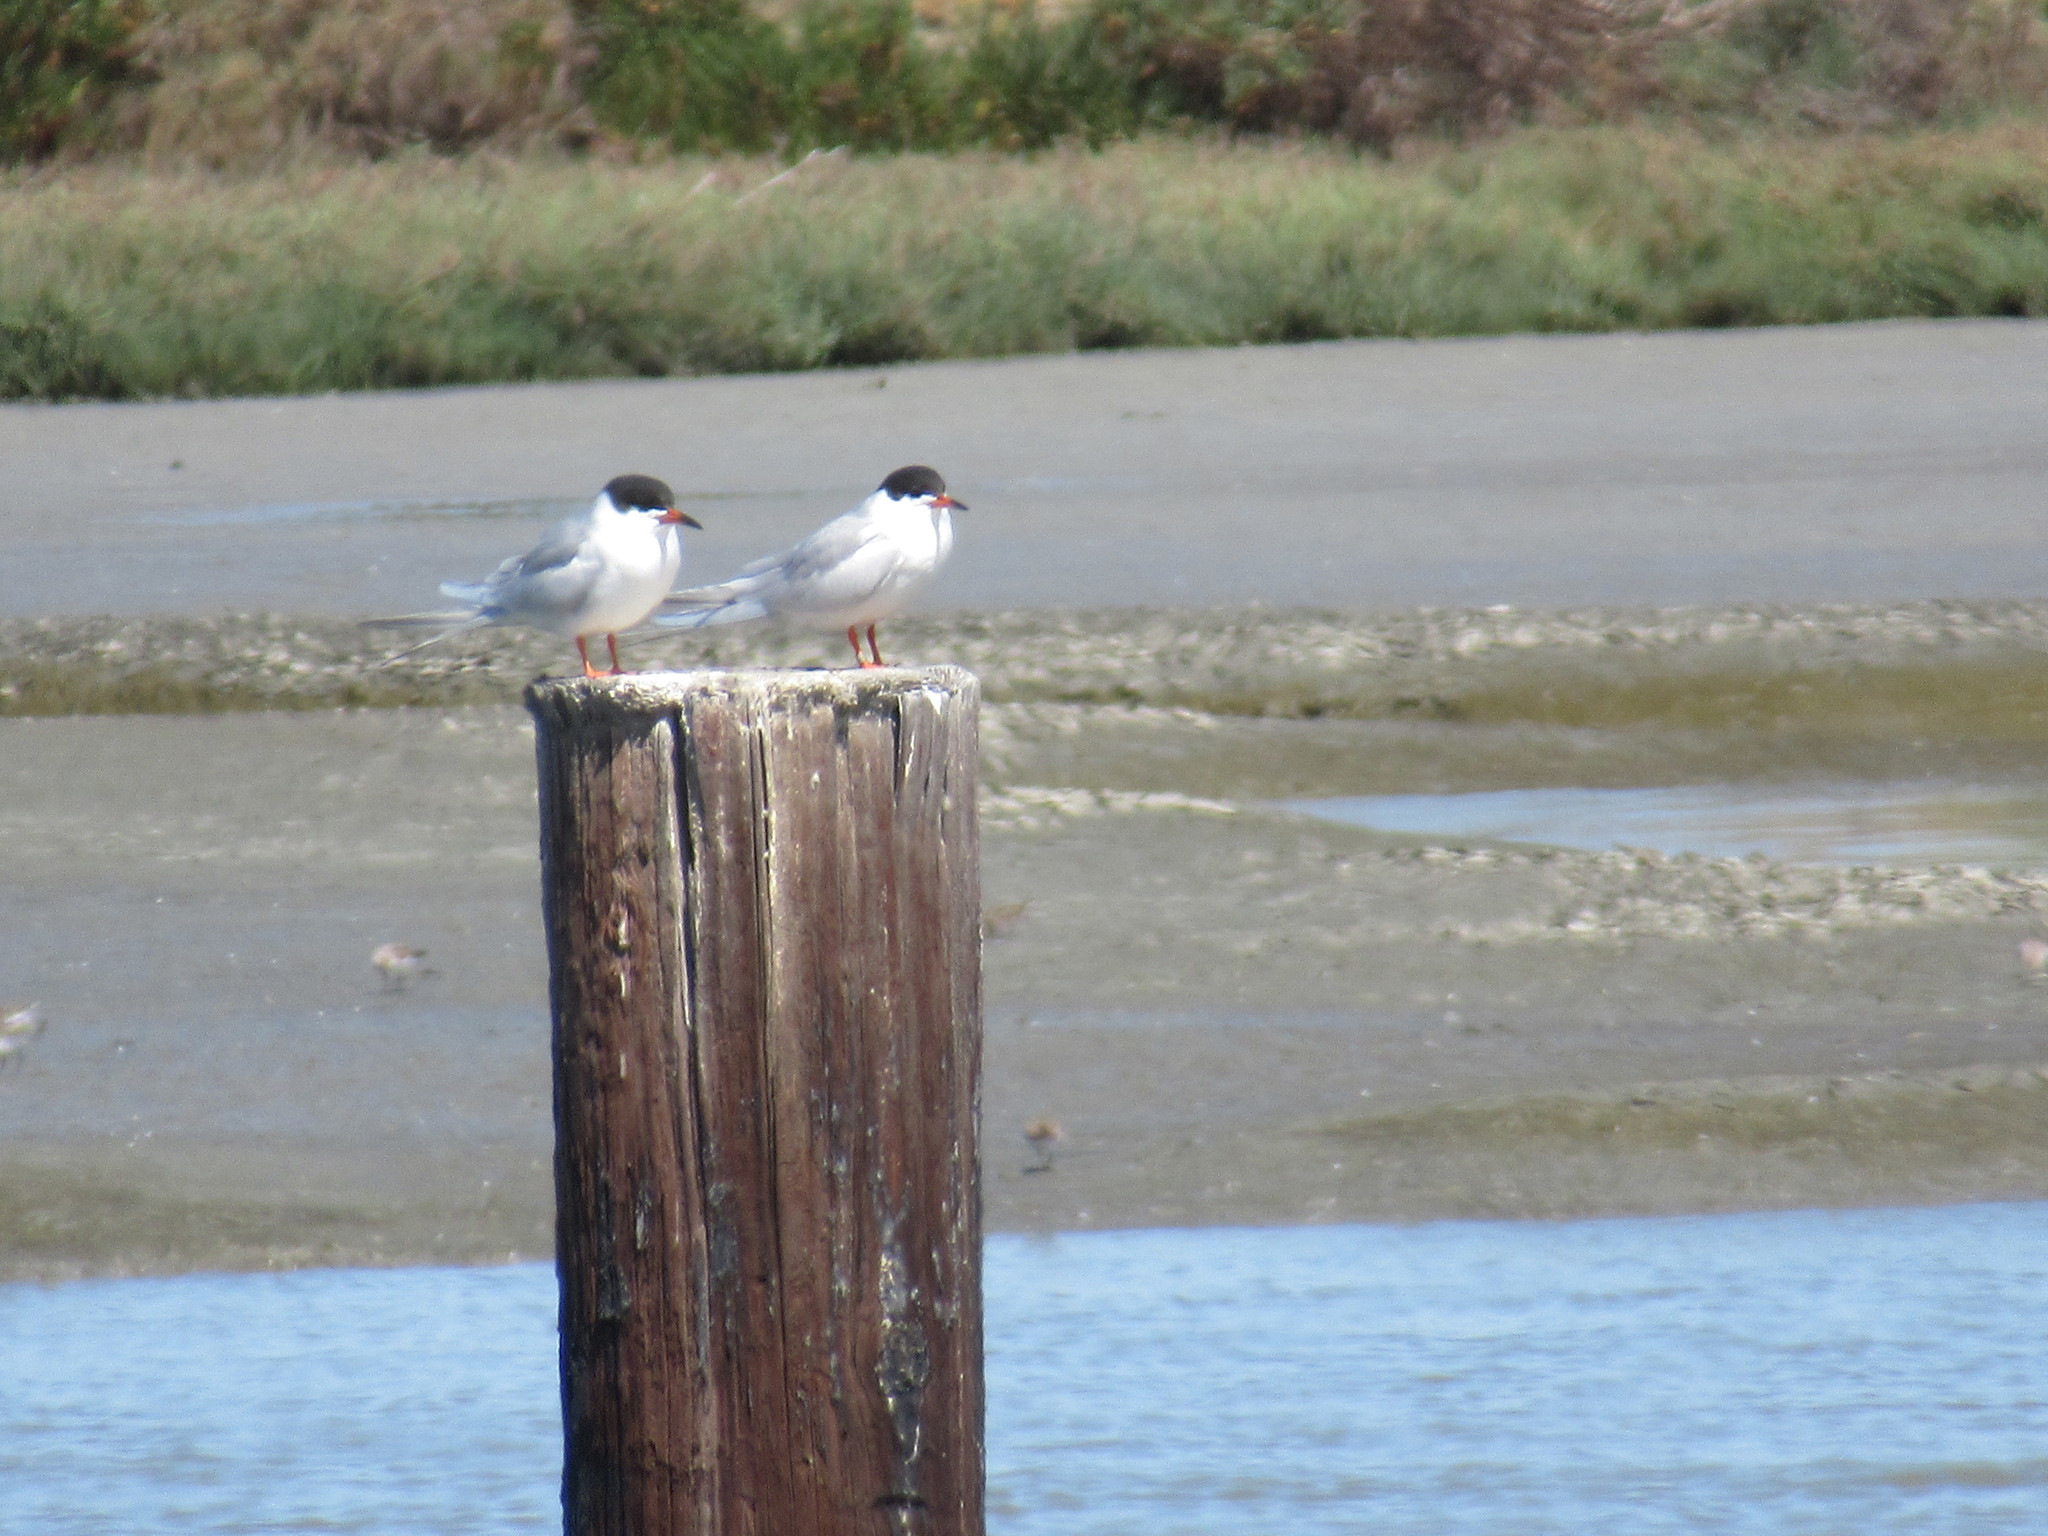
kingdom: Animalia
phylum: Chordata
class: Aves
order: Charadriiformes
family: Laridae
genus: Sterna
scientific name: Sterna forsteri
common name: Forster's tern
